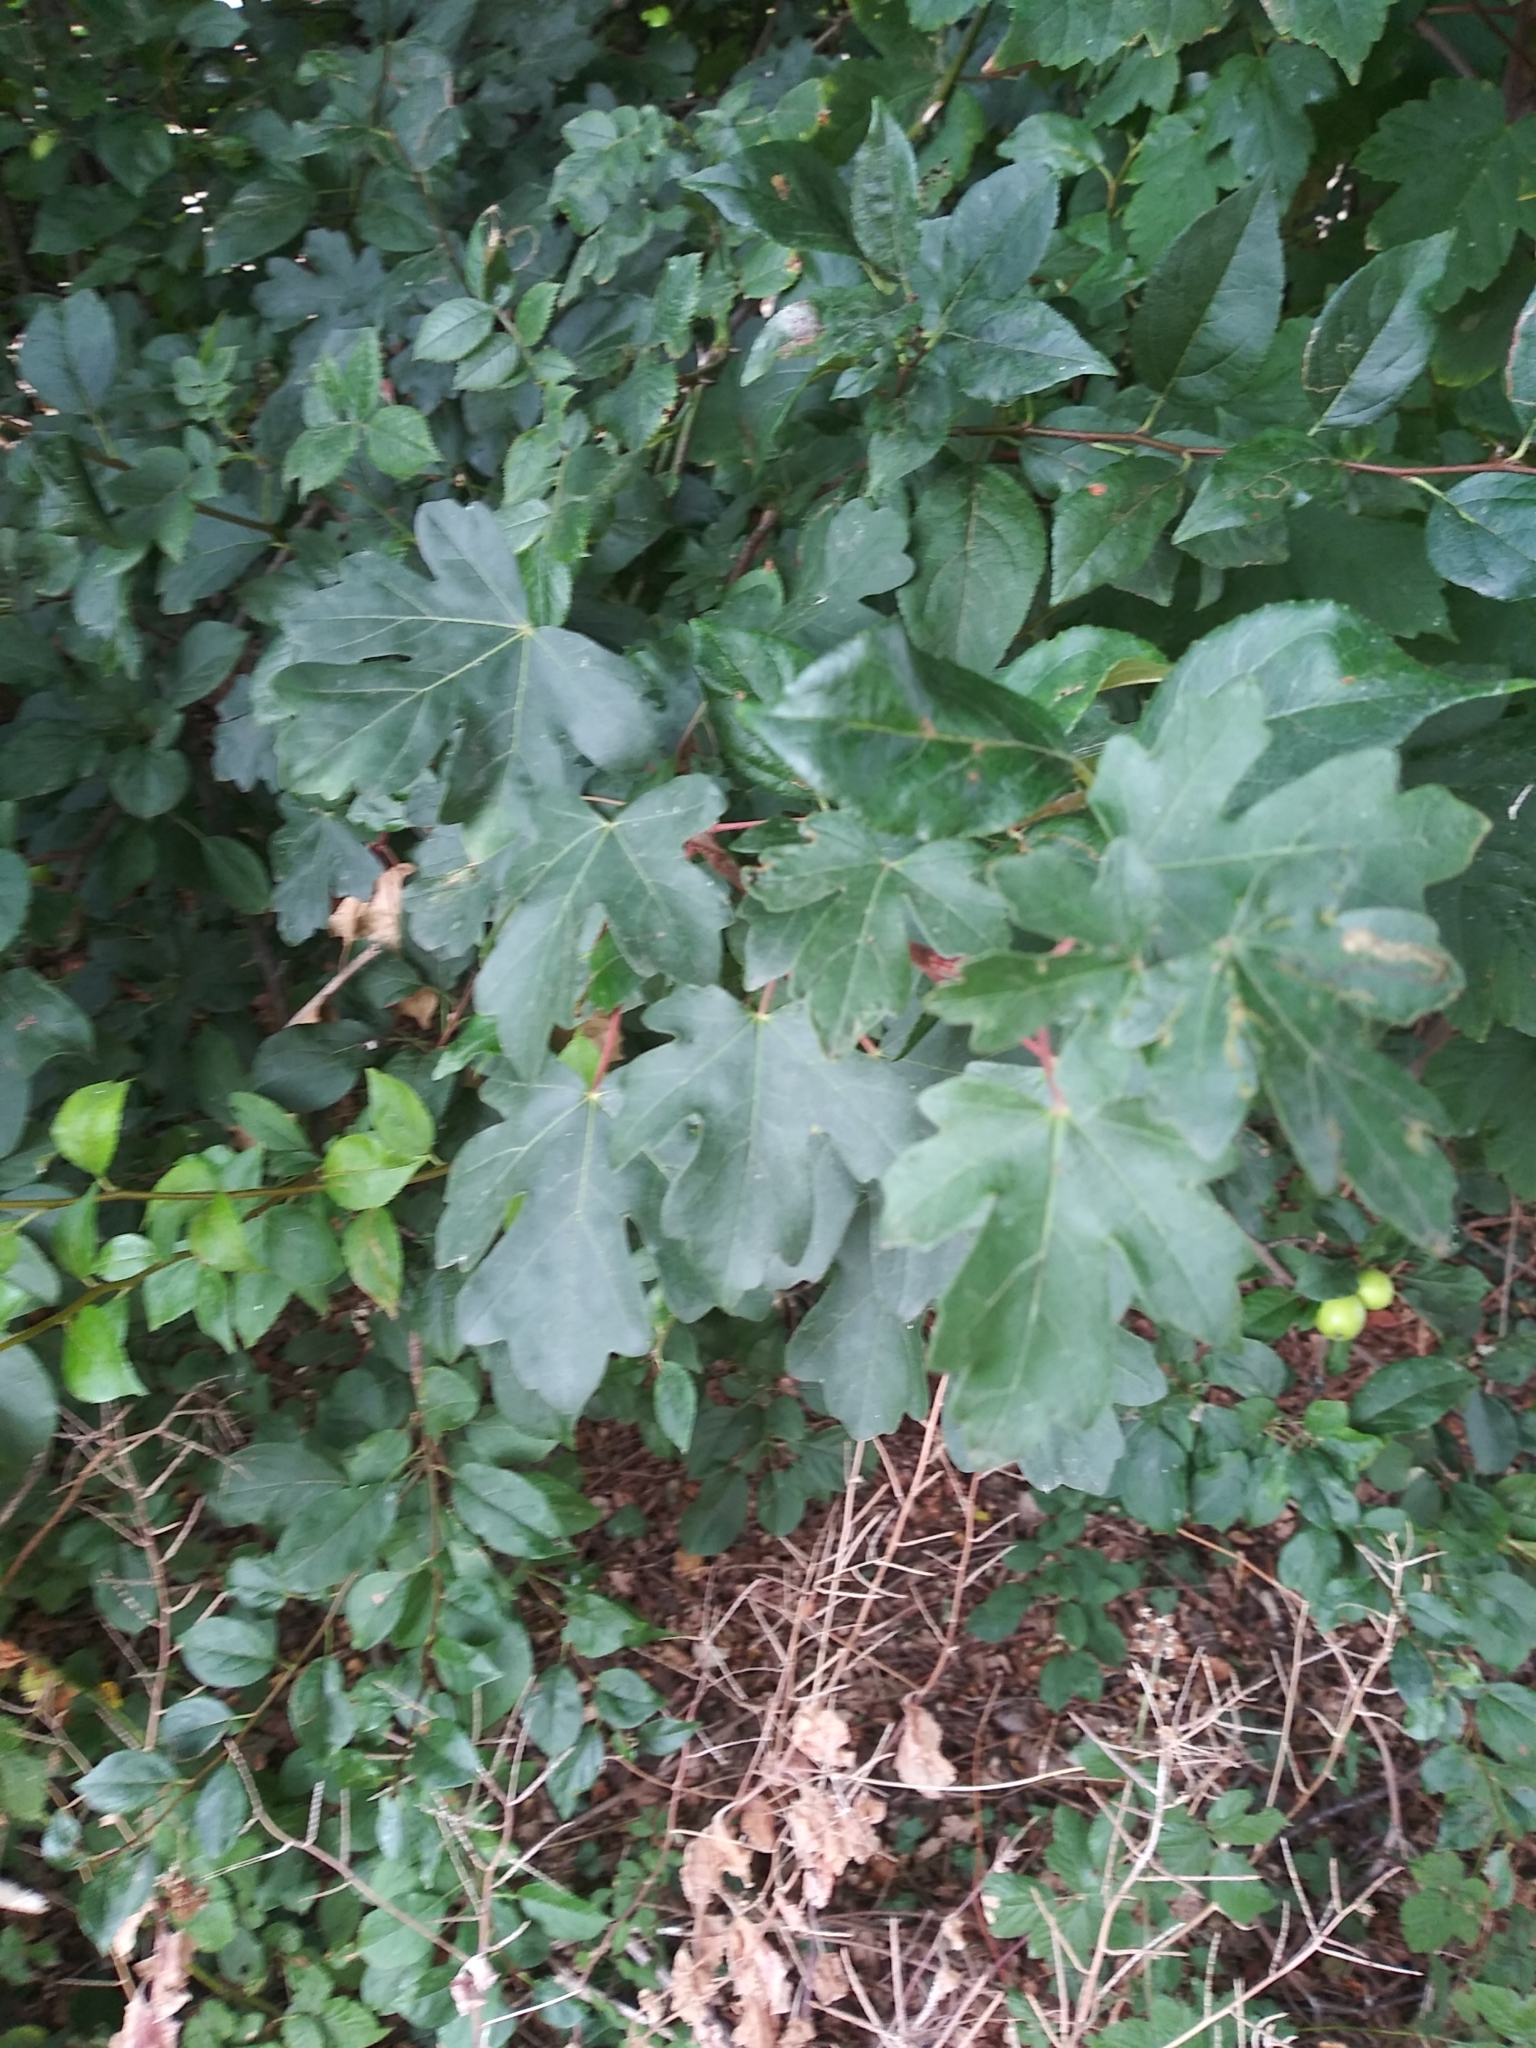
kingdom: Plantae
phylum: Tracheophyta
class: Magnoliopsida
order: Sapindales
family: Sapindaceae
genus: Acer
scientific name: Acer campestre
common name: Field maple
